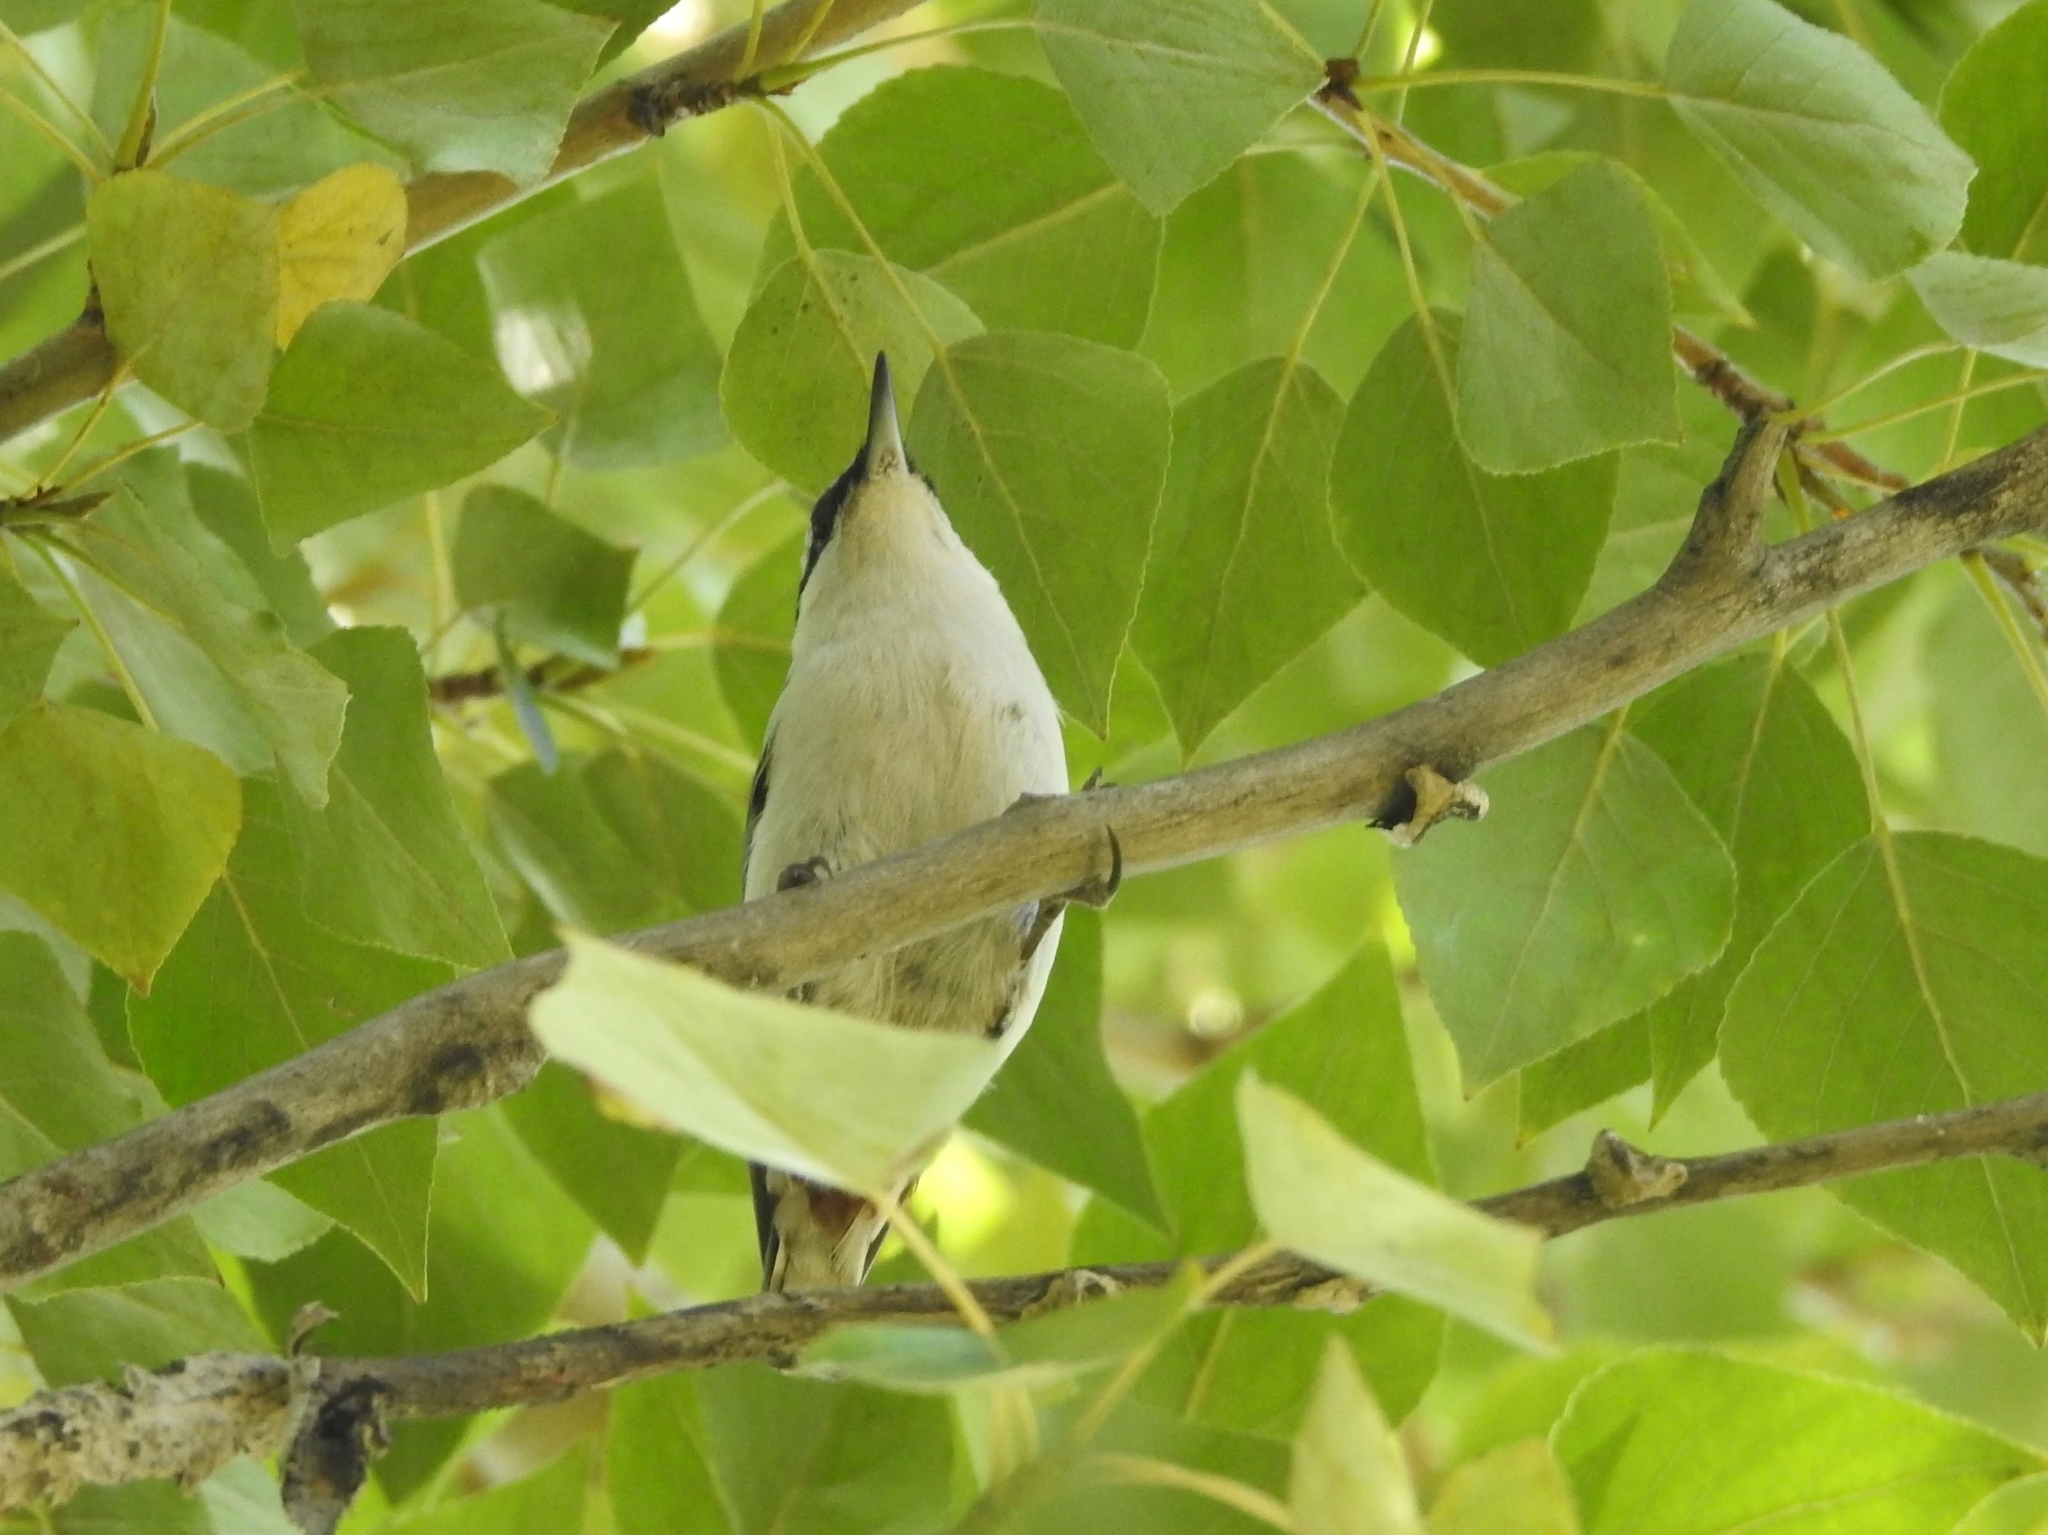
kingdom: Animalia
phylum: Chordata
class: Aves
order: Passeriformes
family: Sittidae
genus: Sitta
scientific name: Sitta europaea
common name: Eurasian nuthatch
